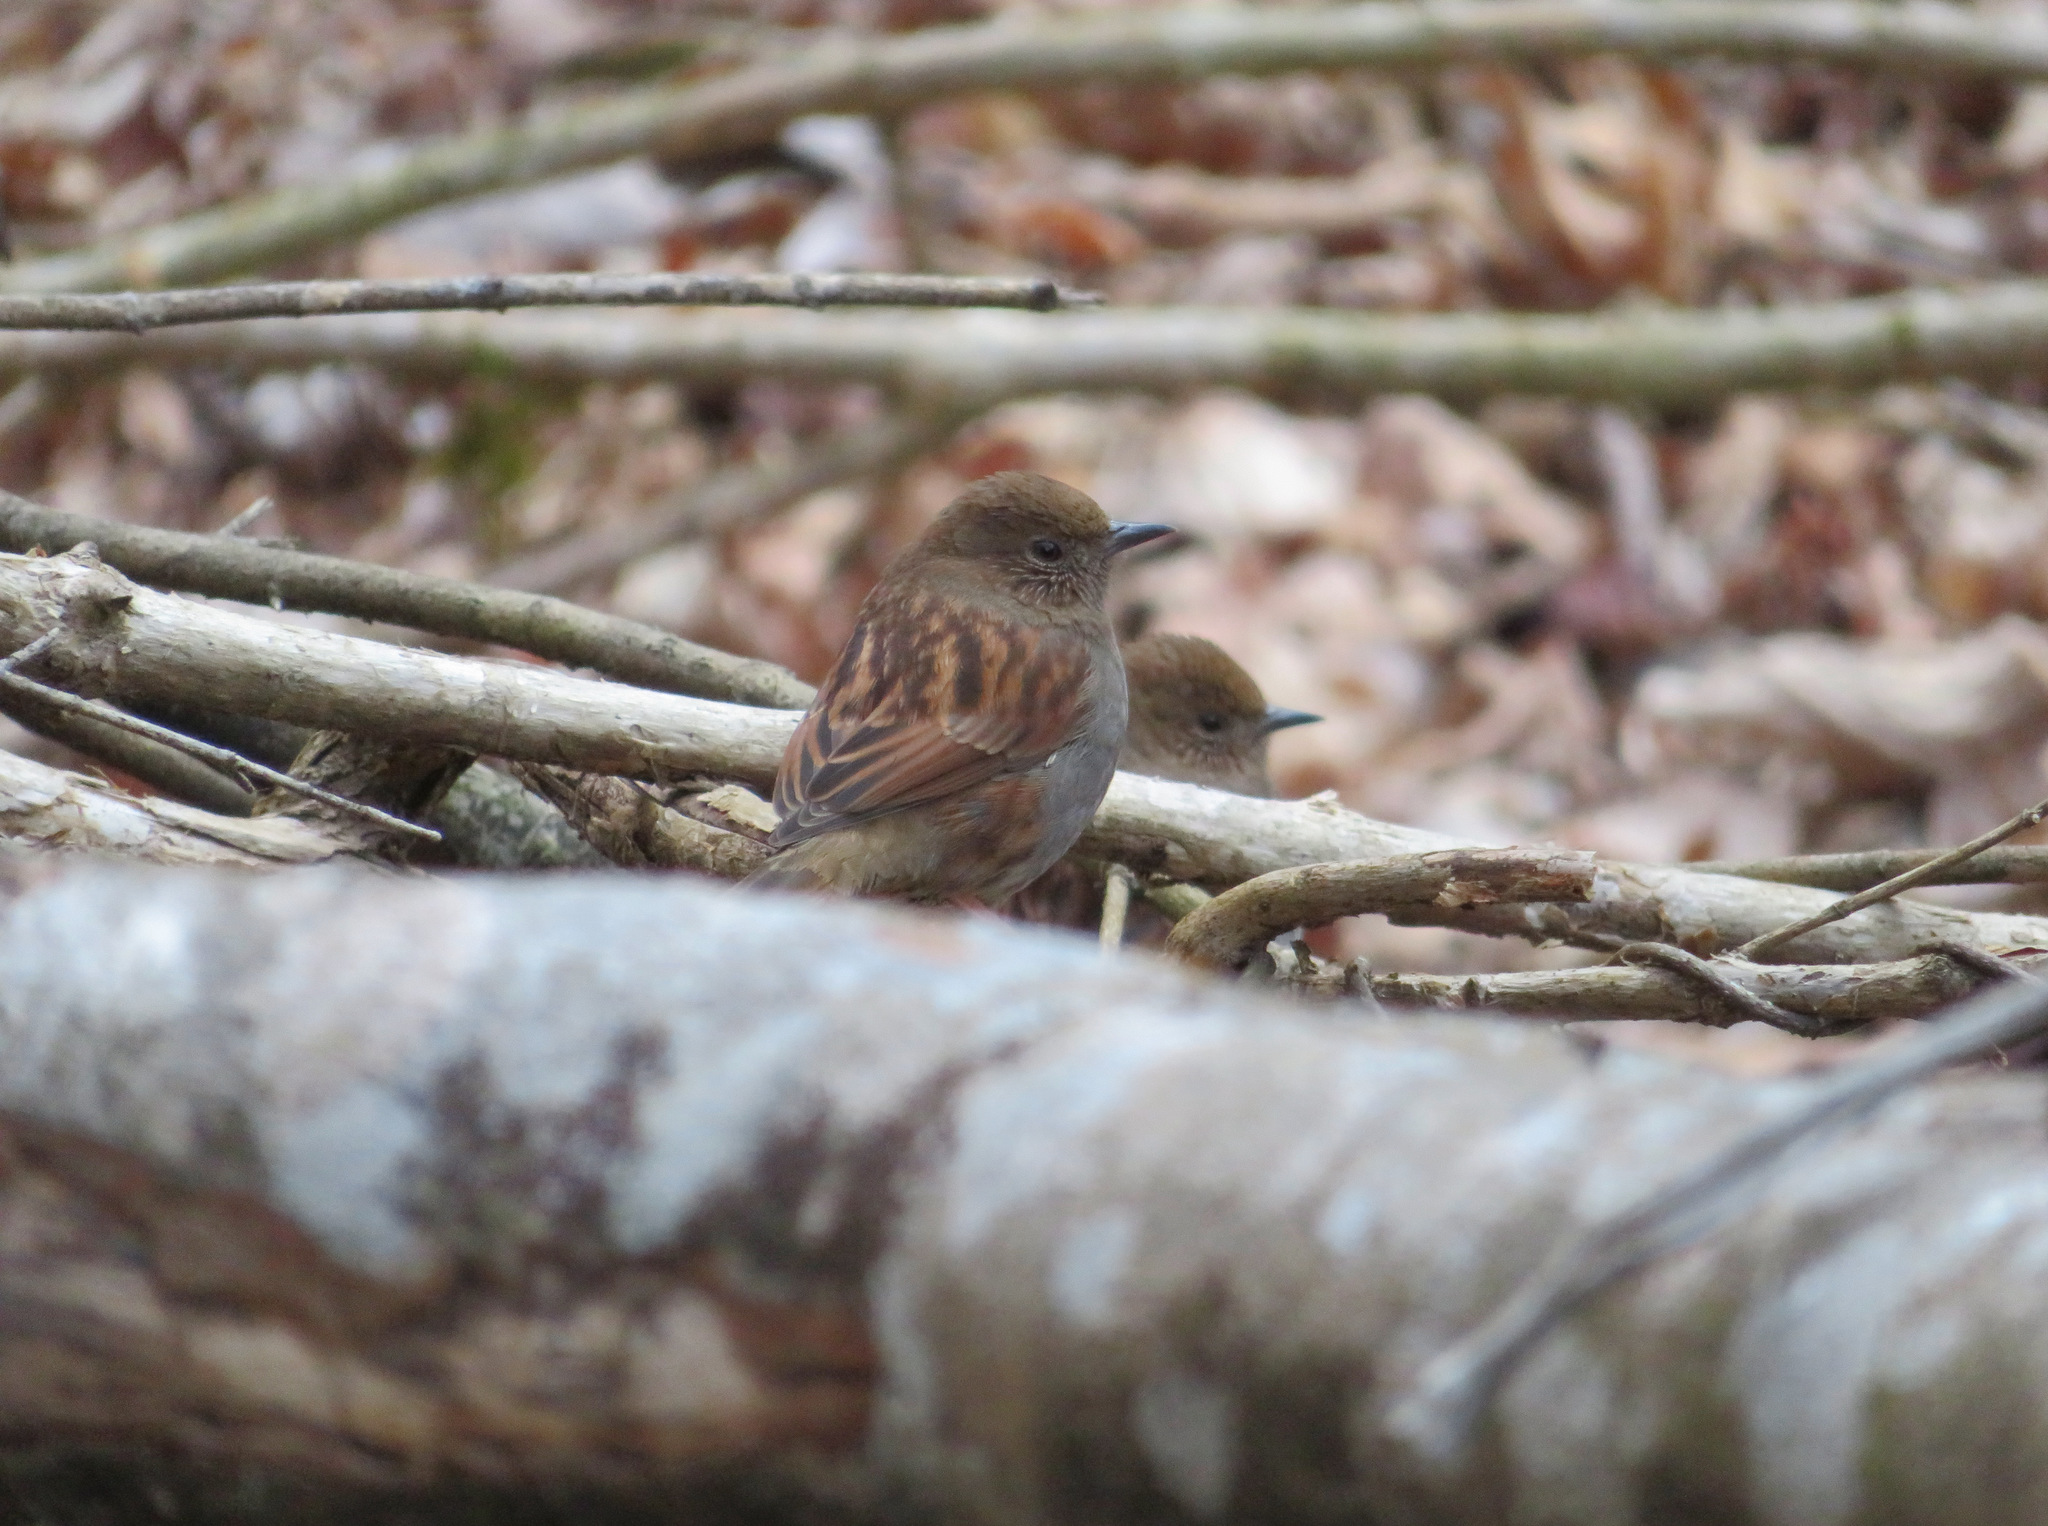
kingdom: Animalia
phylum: Chordata
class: Aves
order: Passeriformes
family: Prunellidae
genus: Prunella
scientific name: Prunella rubida
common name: Japanese accentor
